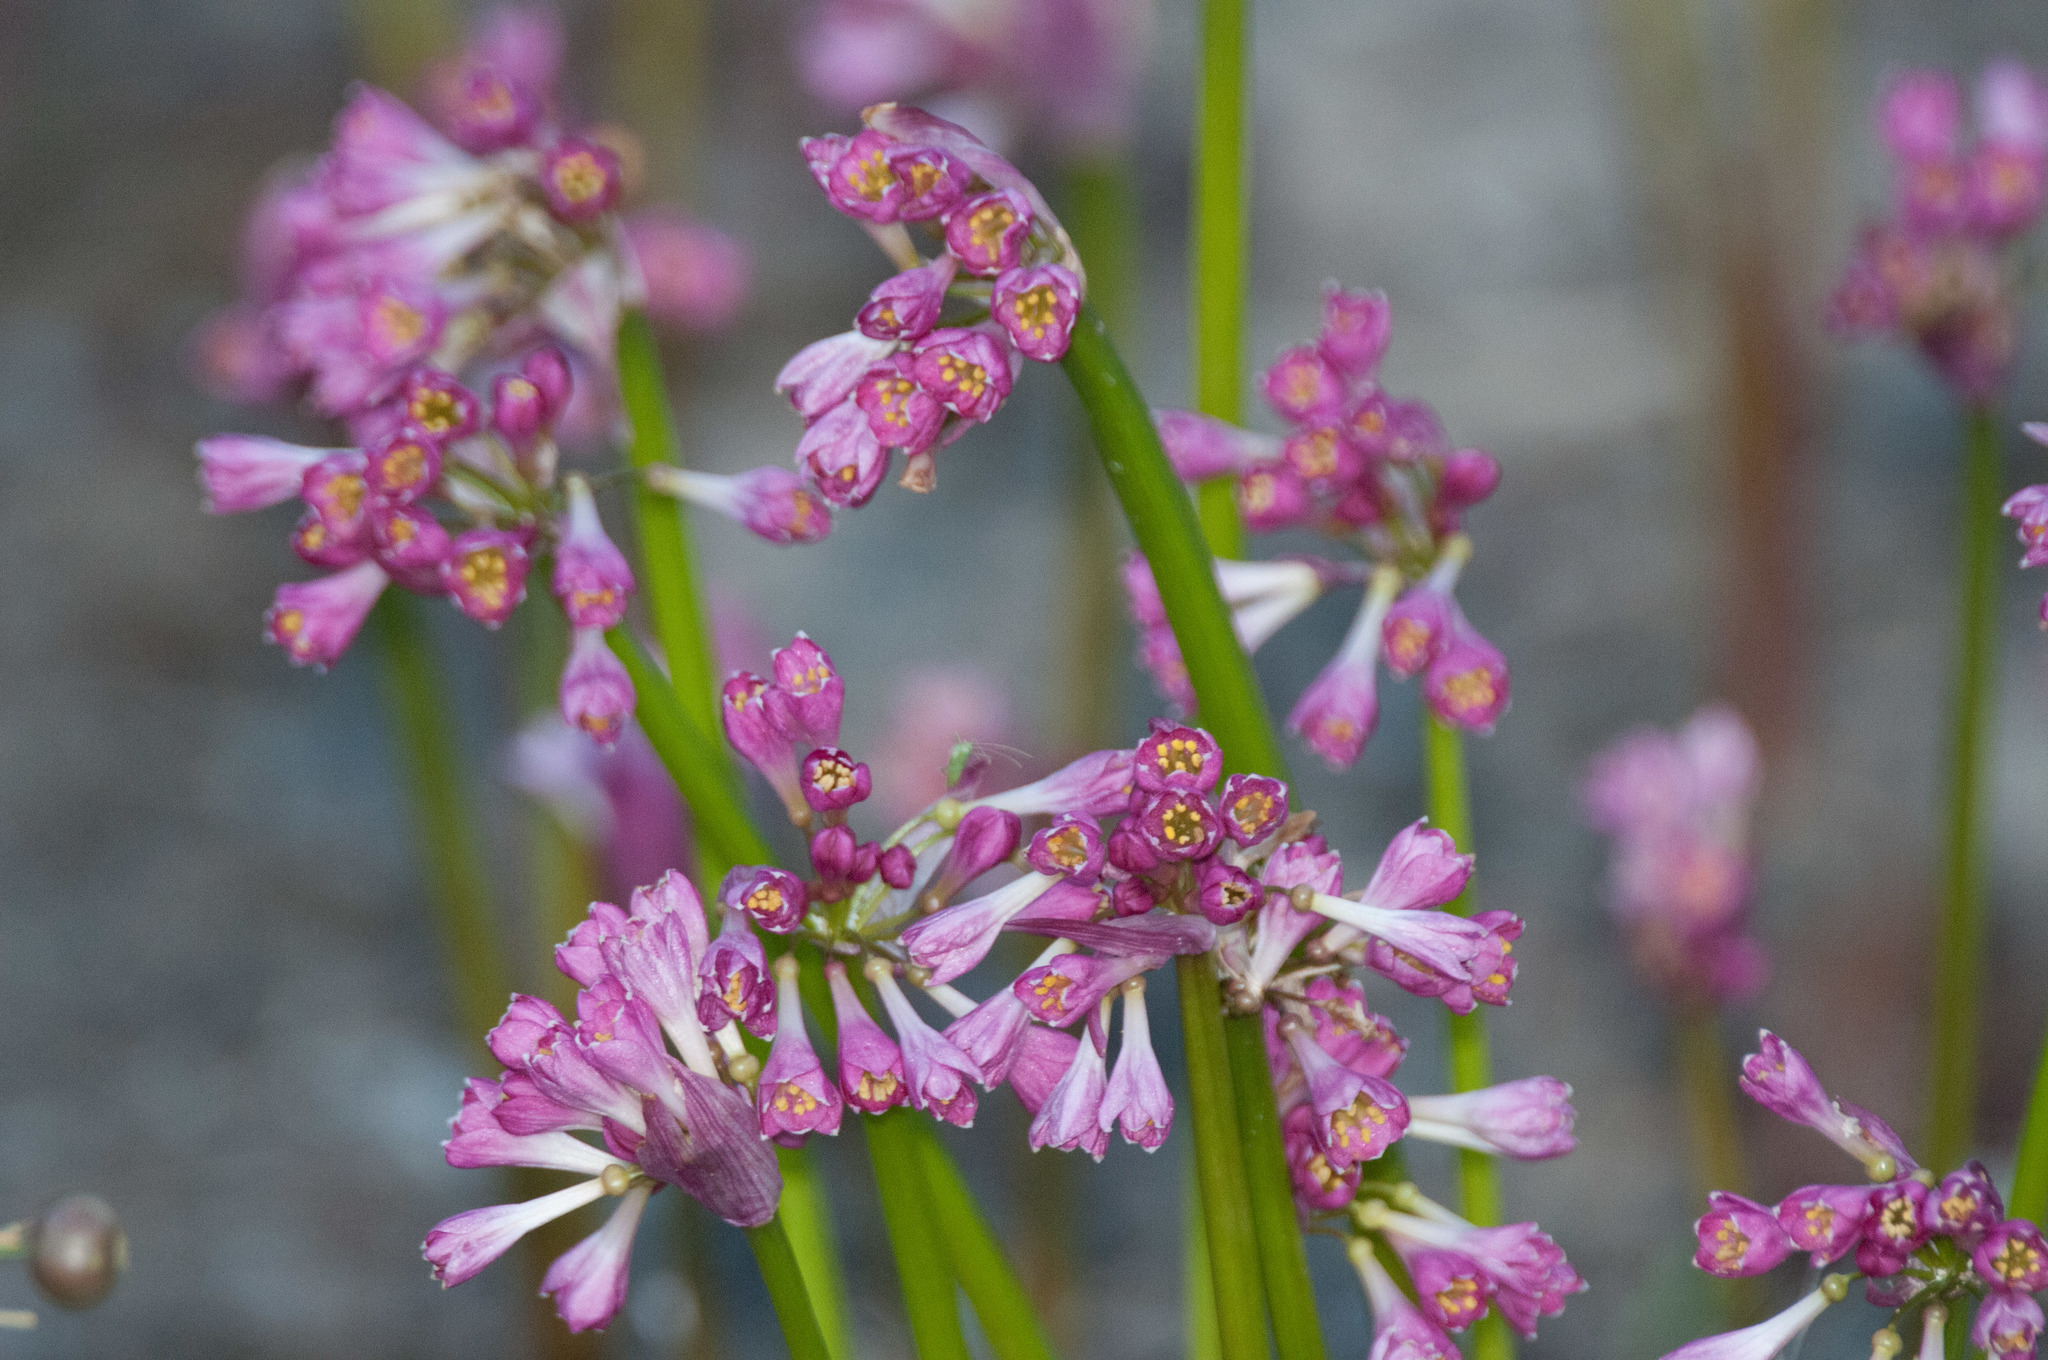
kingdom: Plantae
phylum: Tracheophyta
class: Liliopsida
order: Asparagales
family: Amaryllidaceae
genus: Calostemma
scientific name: Calostemma purpureum
